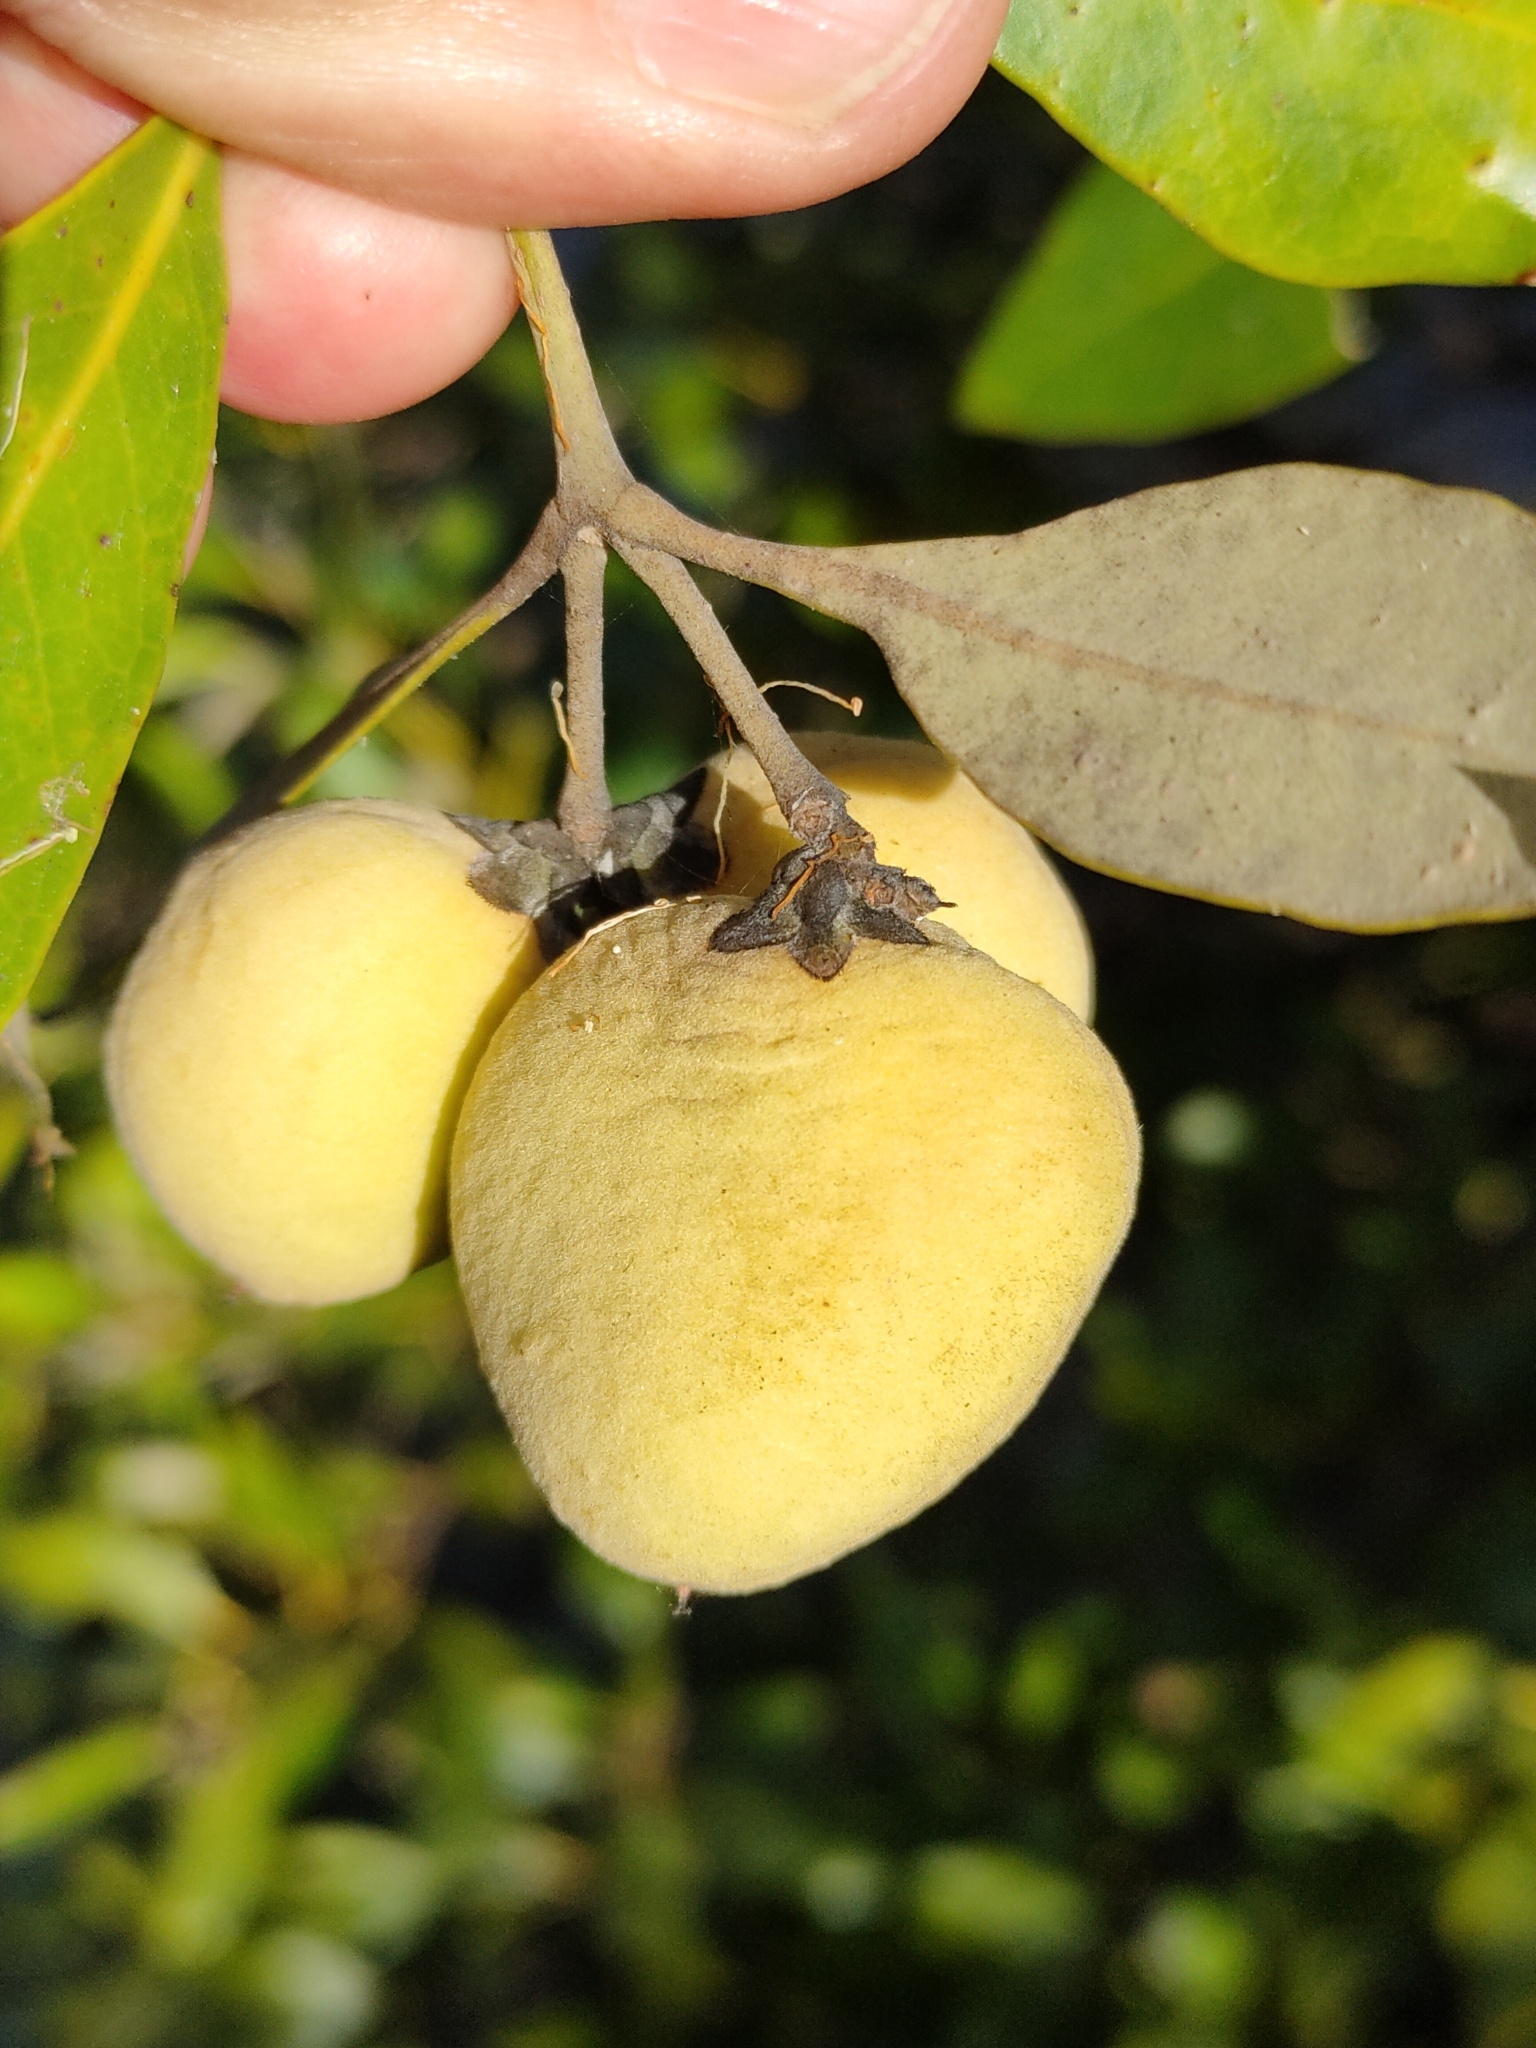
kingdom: Plantae
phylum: Tracheophyta
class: Magnoliopsida
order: Lamiales
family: Acanthaceae
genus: Avicennia
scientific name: Avicennia marina
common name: Gray mangrove
